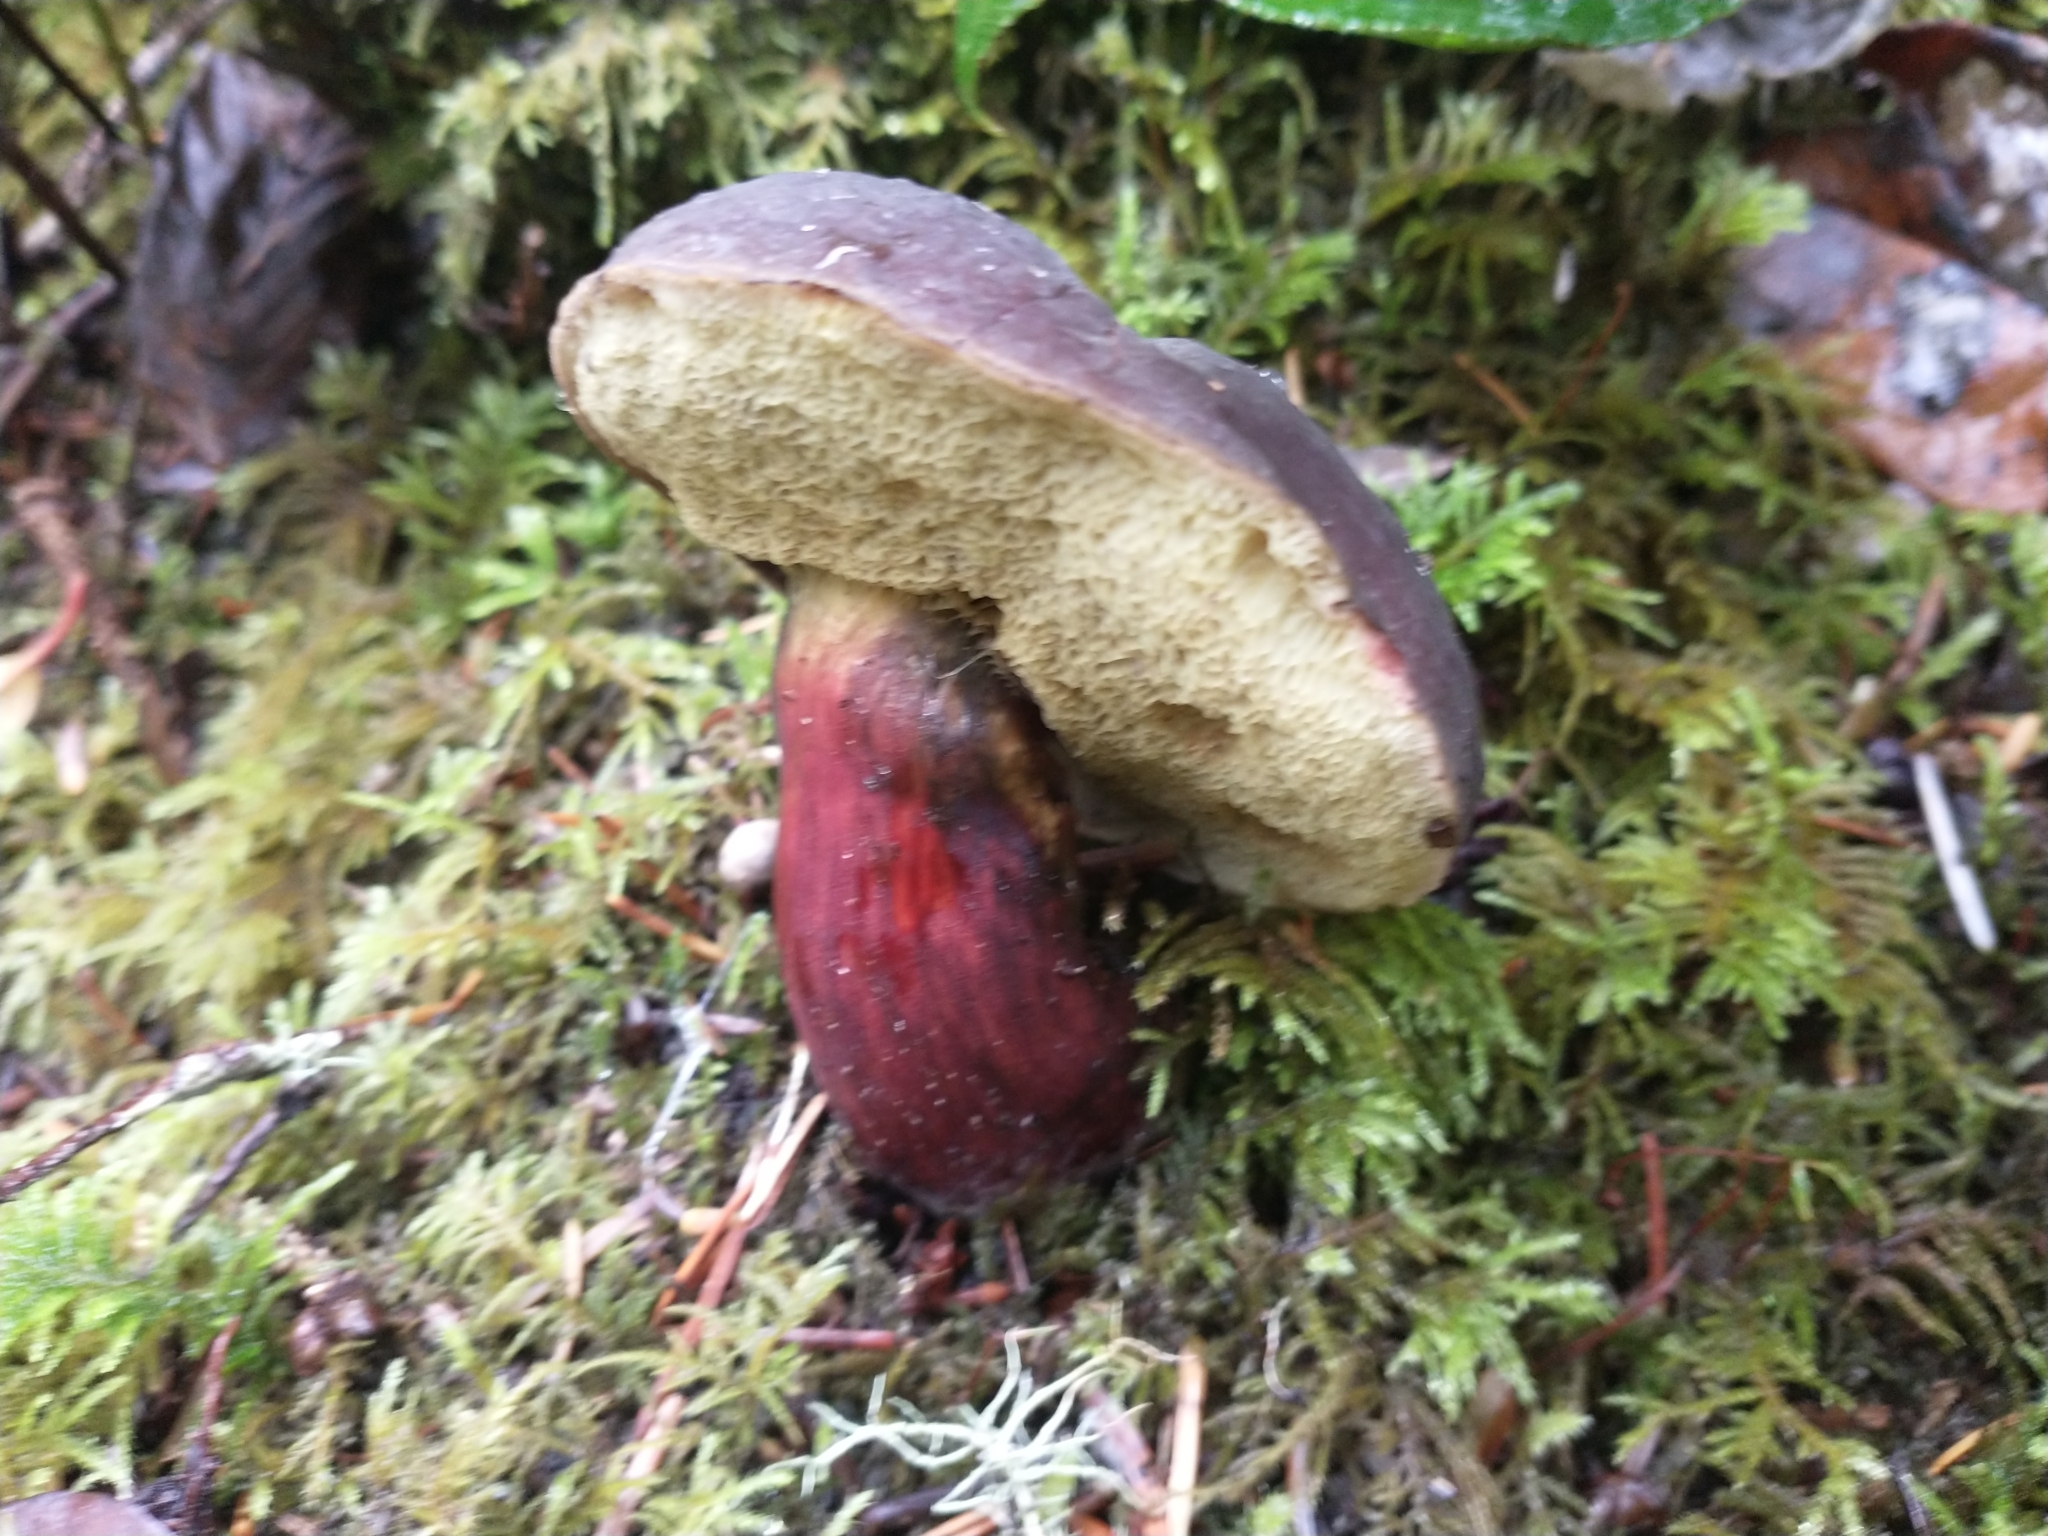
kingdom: Fungi
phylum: Basidiomycota
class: Agaricomycetes
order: Boletales
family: Boletaceae
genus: Xerocomellus
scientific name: Xerocomellus atropurpureus
